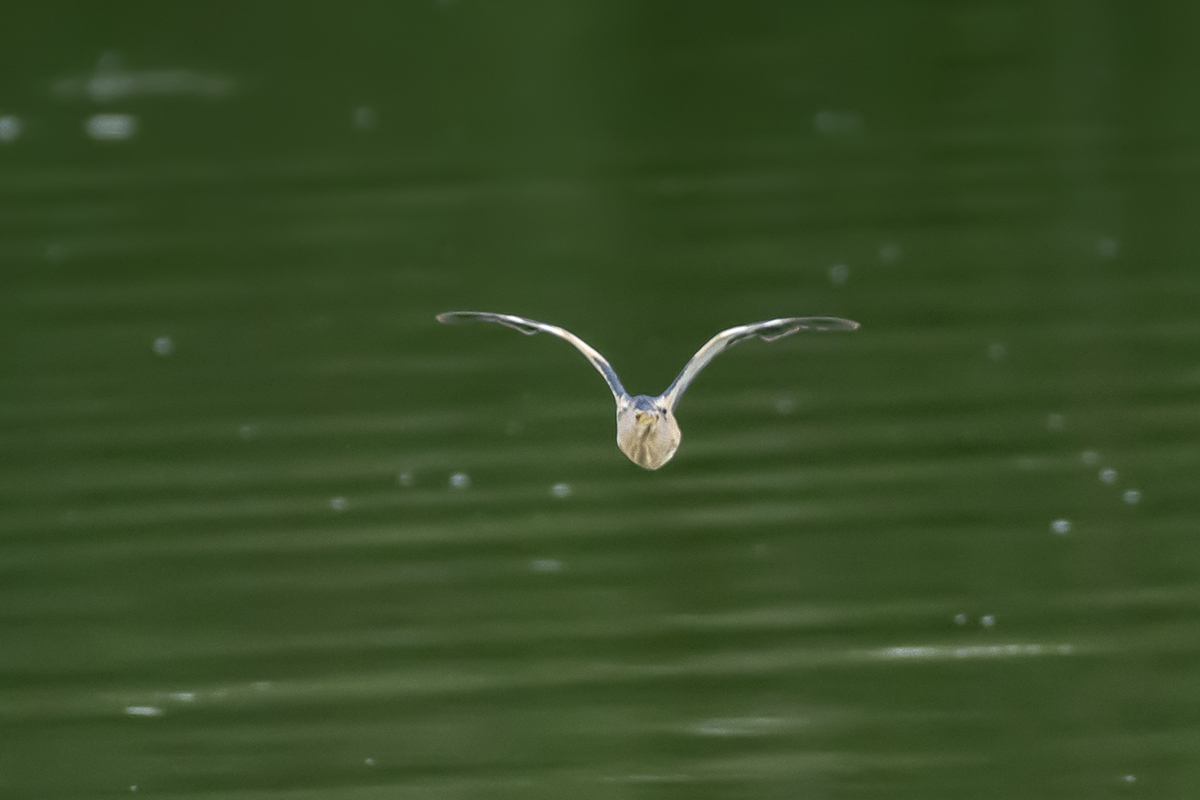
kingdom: Animalia
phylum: Chordata
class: Aves
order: Pelecaniformes
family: Ardeidae
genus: Ixobrychus
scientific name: Ixobrychus minutus
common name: Little bittern
